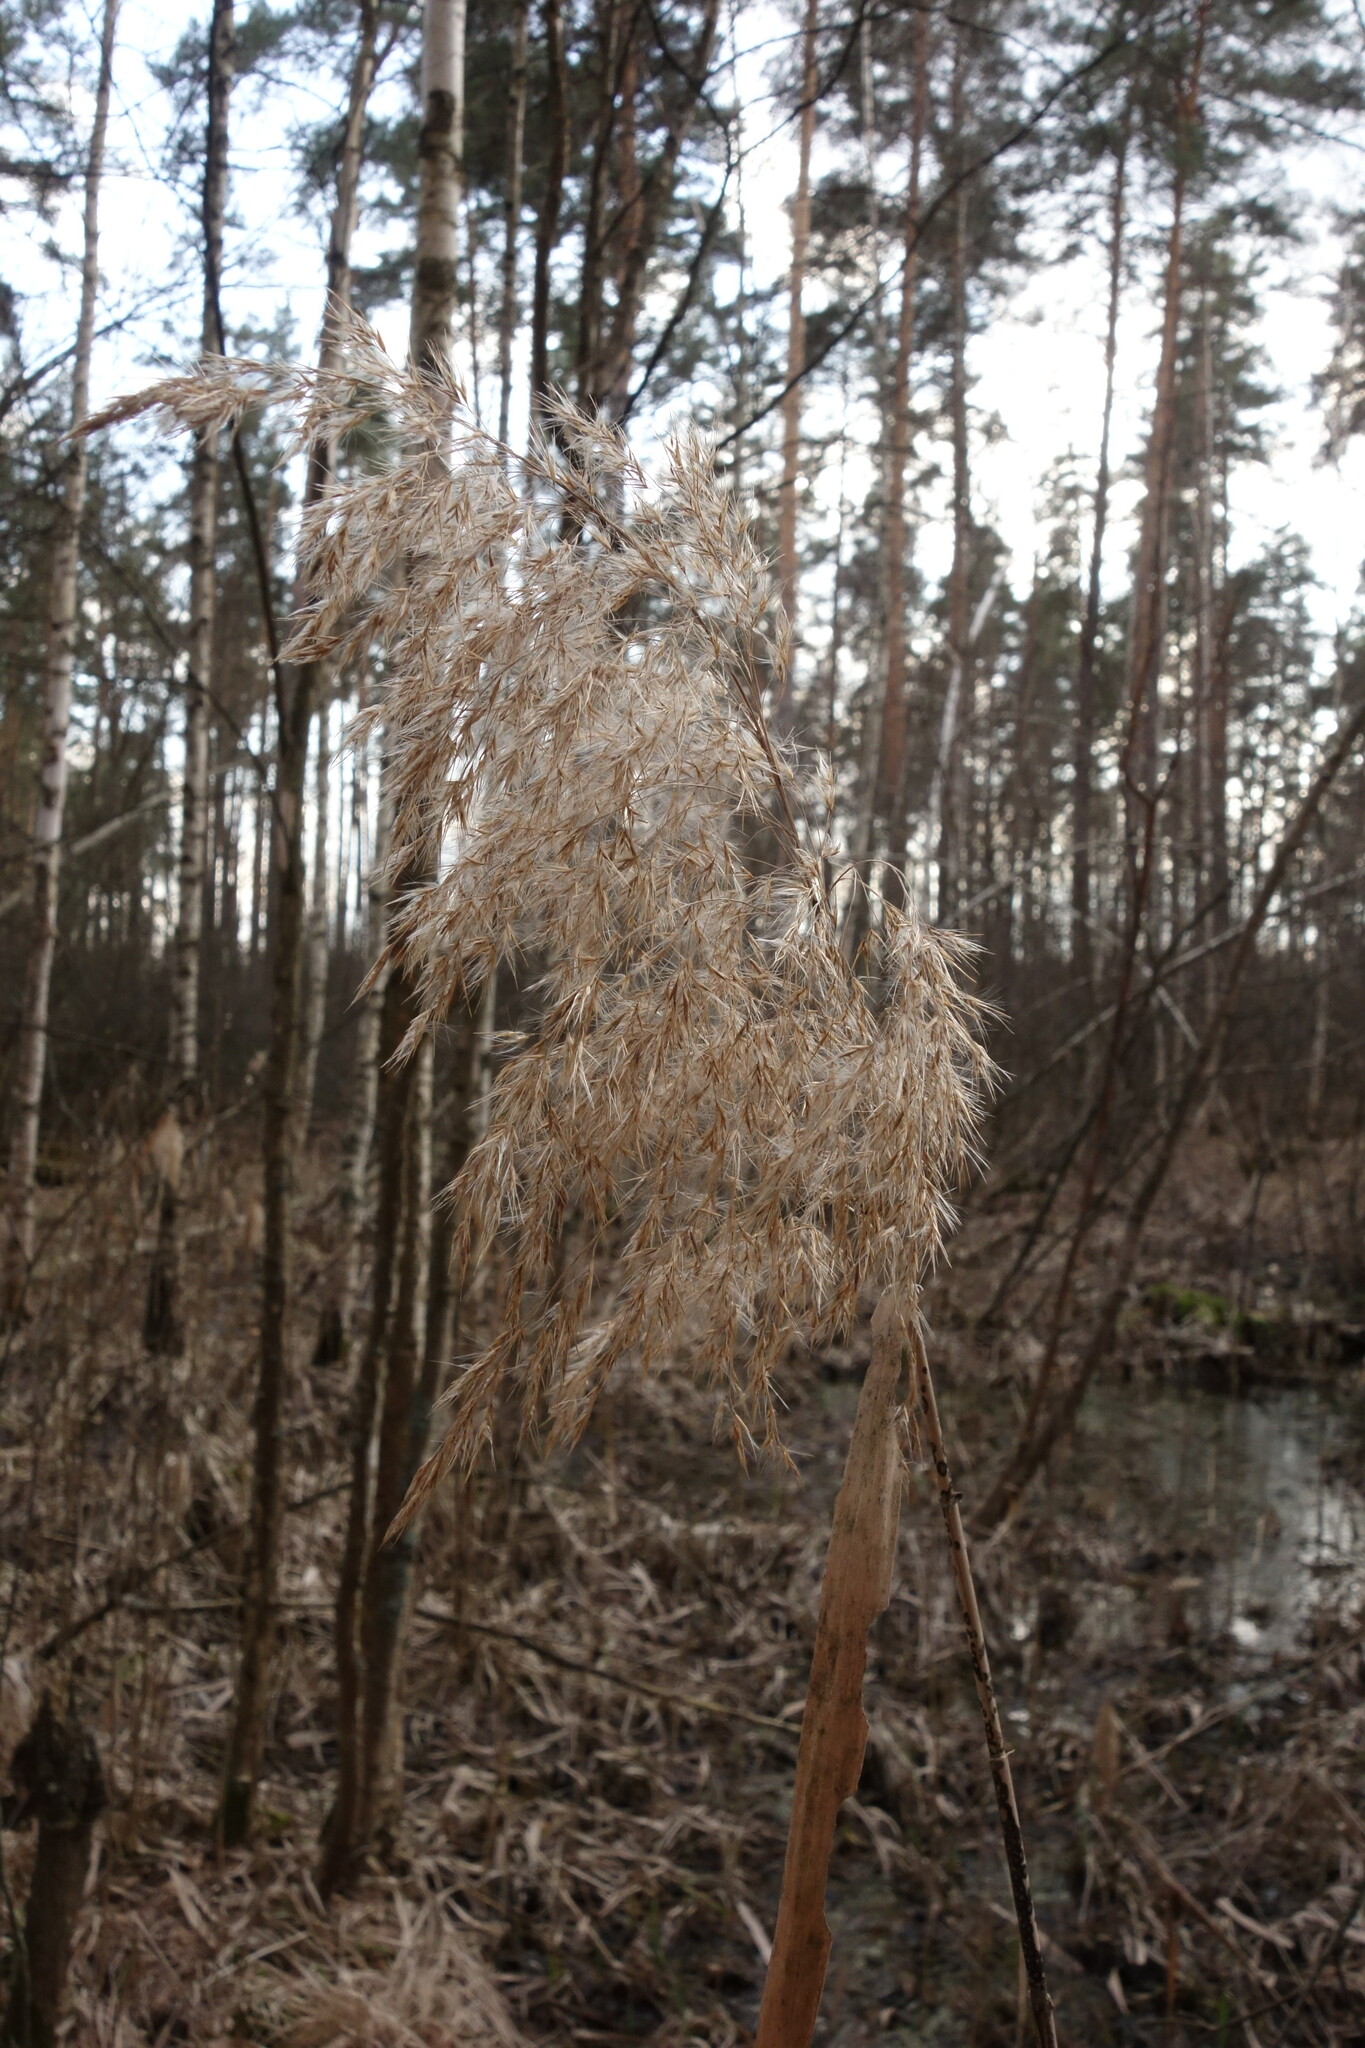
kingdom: Plantae
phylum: Tracheophyta
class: Liliopsida
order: Poales
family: Poaceae
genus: Phragmites
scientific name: Phragmites australis
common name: Common reed
